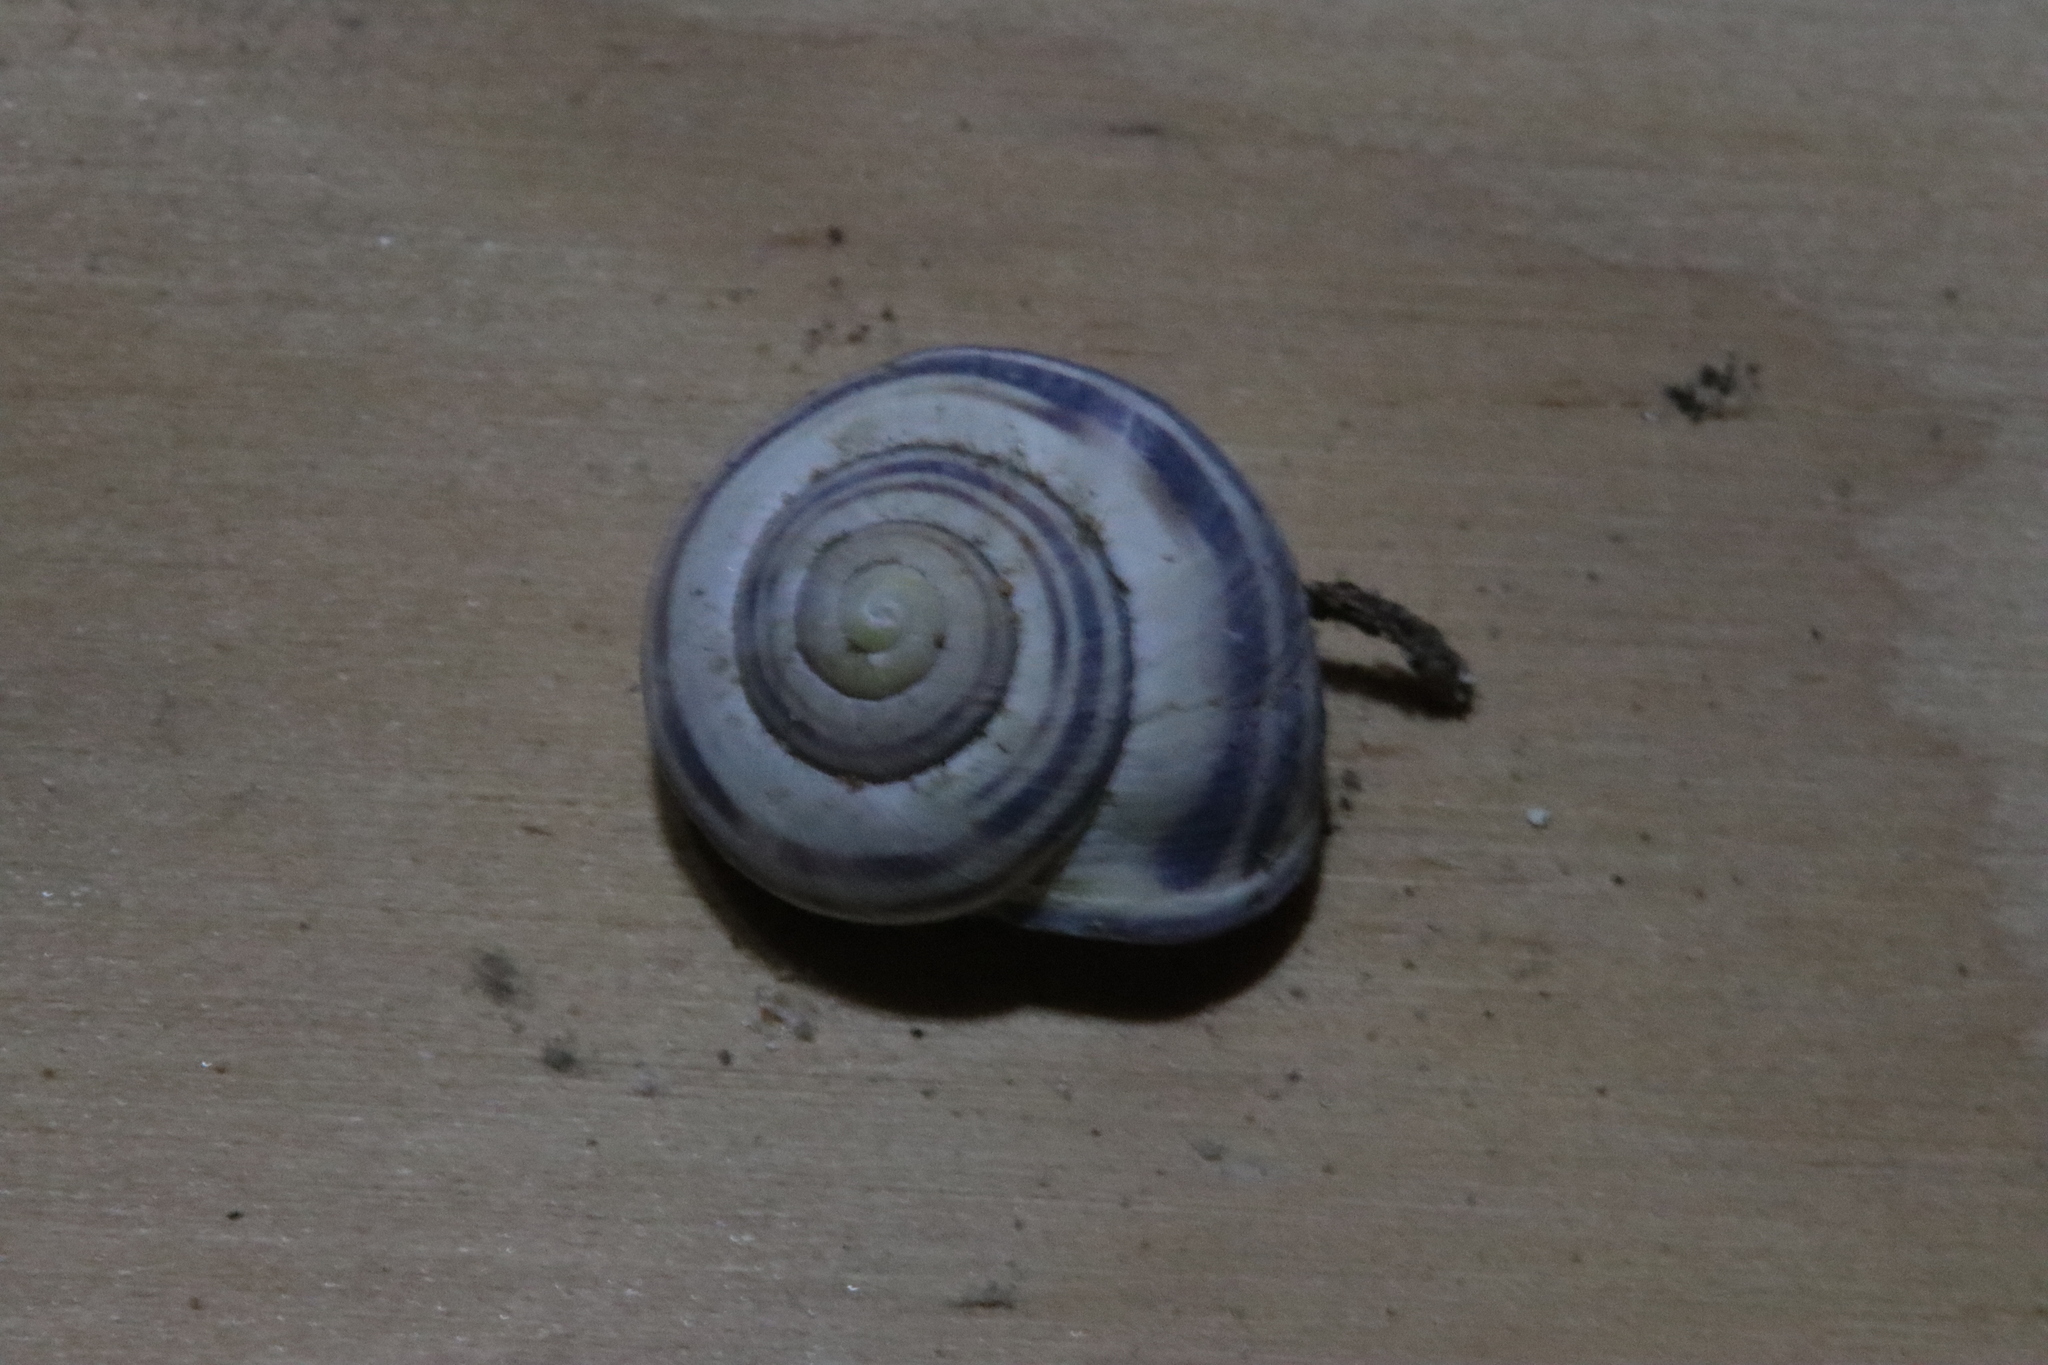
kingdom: Animalia
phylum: Mollusca
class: Gastropoda
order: Stylommatophora
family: Helicidae
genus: Cepaea
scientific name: Cepaea nemoralis
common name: Grovesnail
